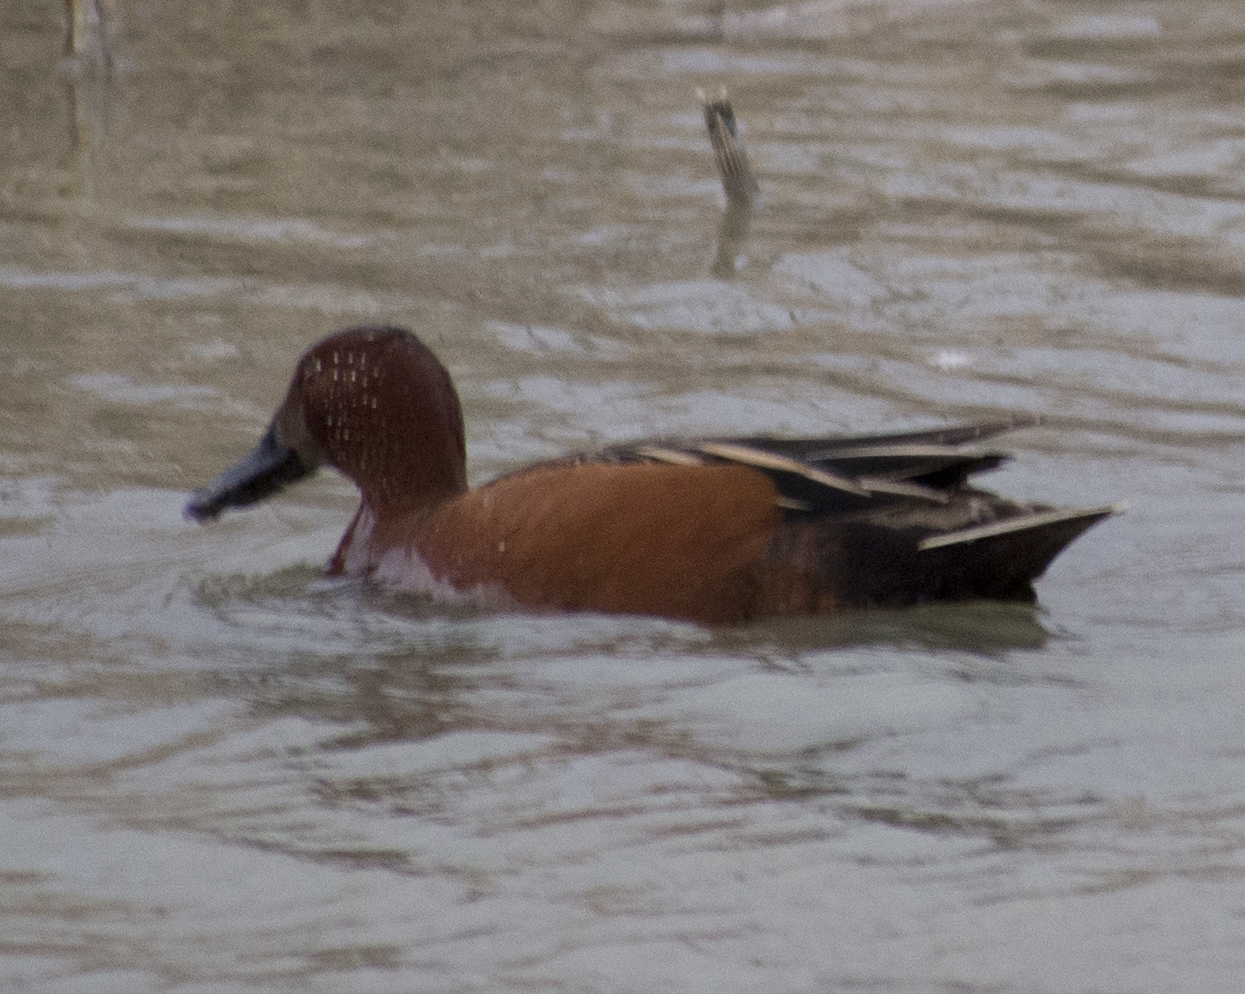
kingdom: Animalia
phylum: Chordata
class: Aves
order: Anseriformes
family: Anatidae
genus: Spatula
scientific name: Spatula cyanoptera
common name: Cinnamon teal
